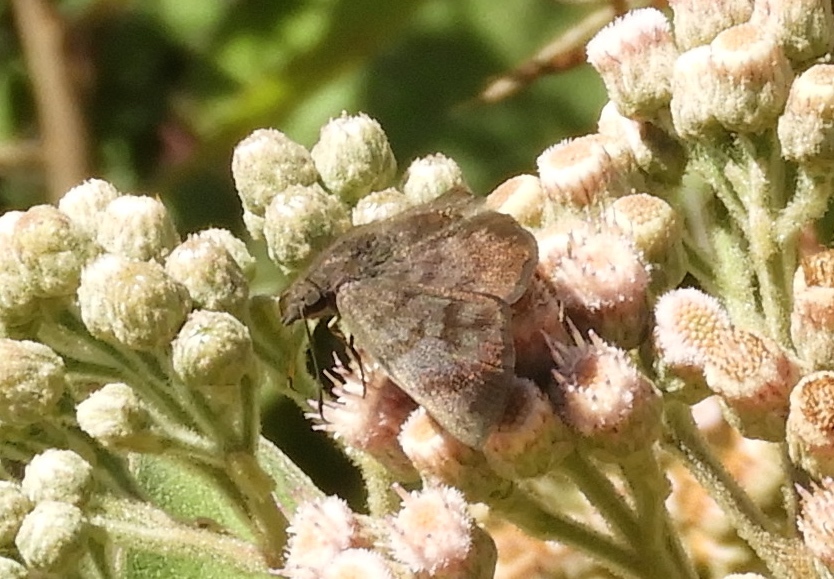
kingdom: Animalia
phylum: Arthropoda
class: Insecta
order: Lepidoptera
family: Hesperiidae
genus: Pellicia
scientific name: Pellicia dimidiata
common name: Morning glory pellicia
